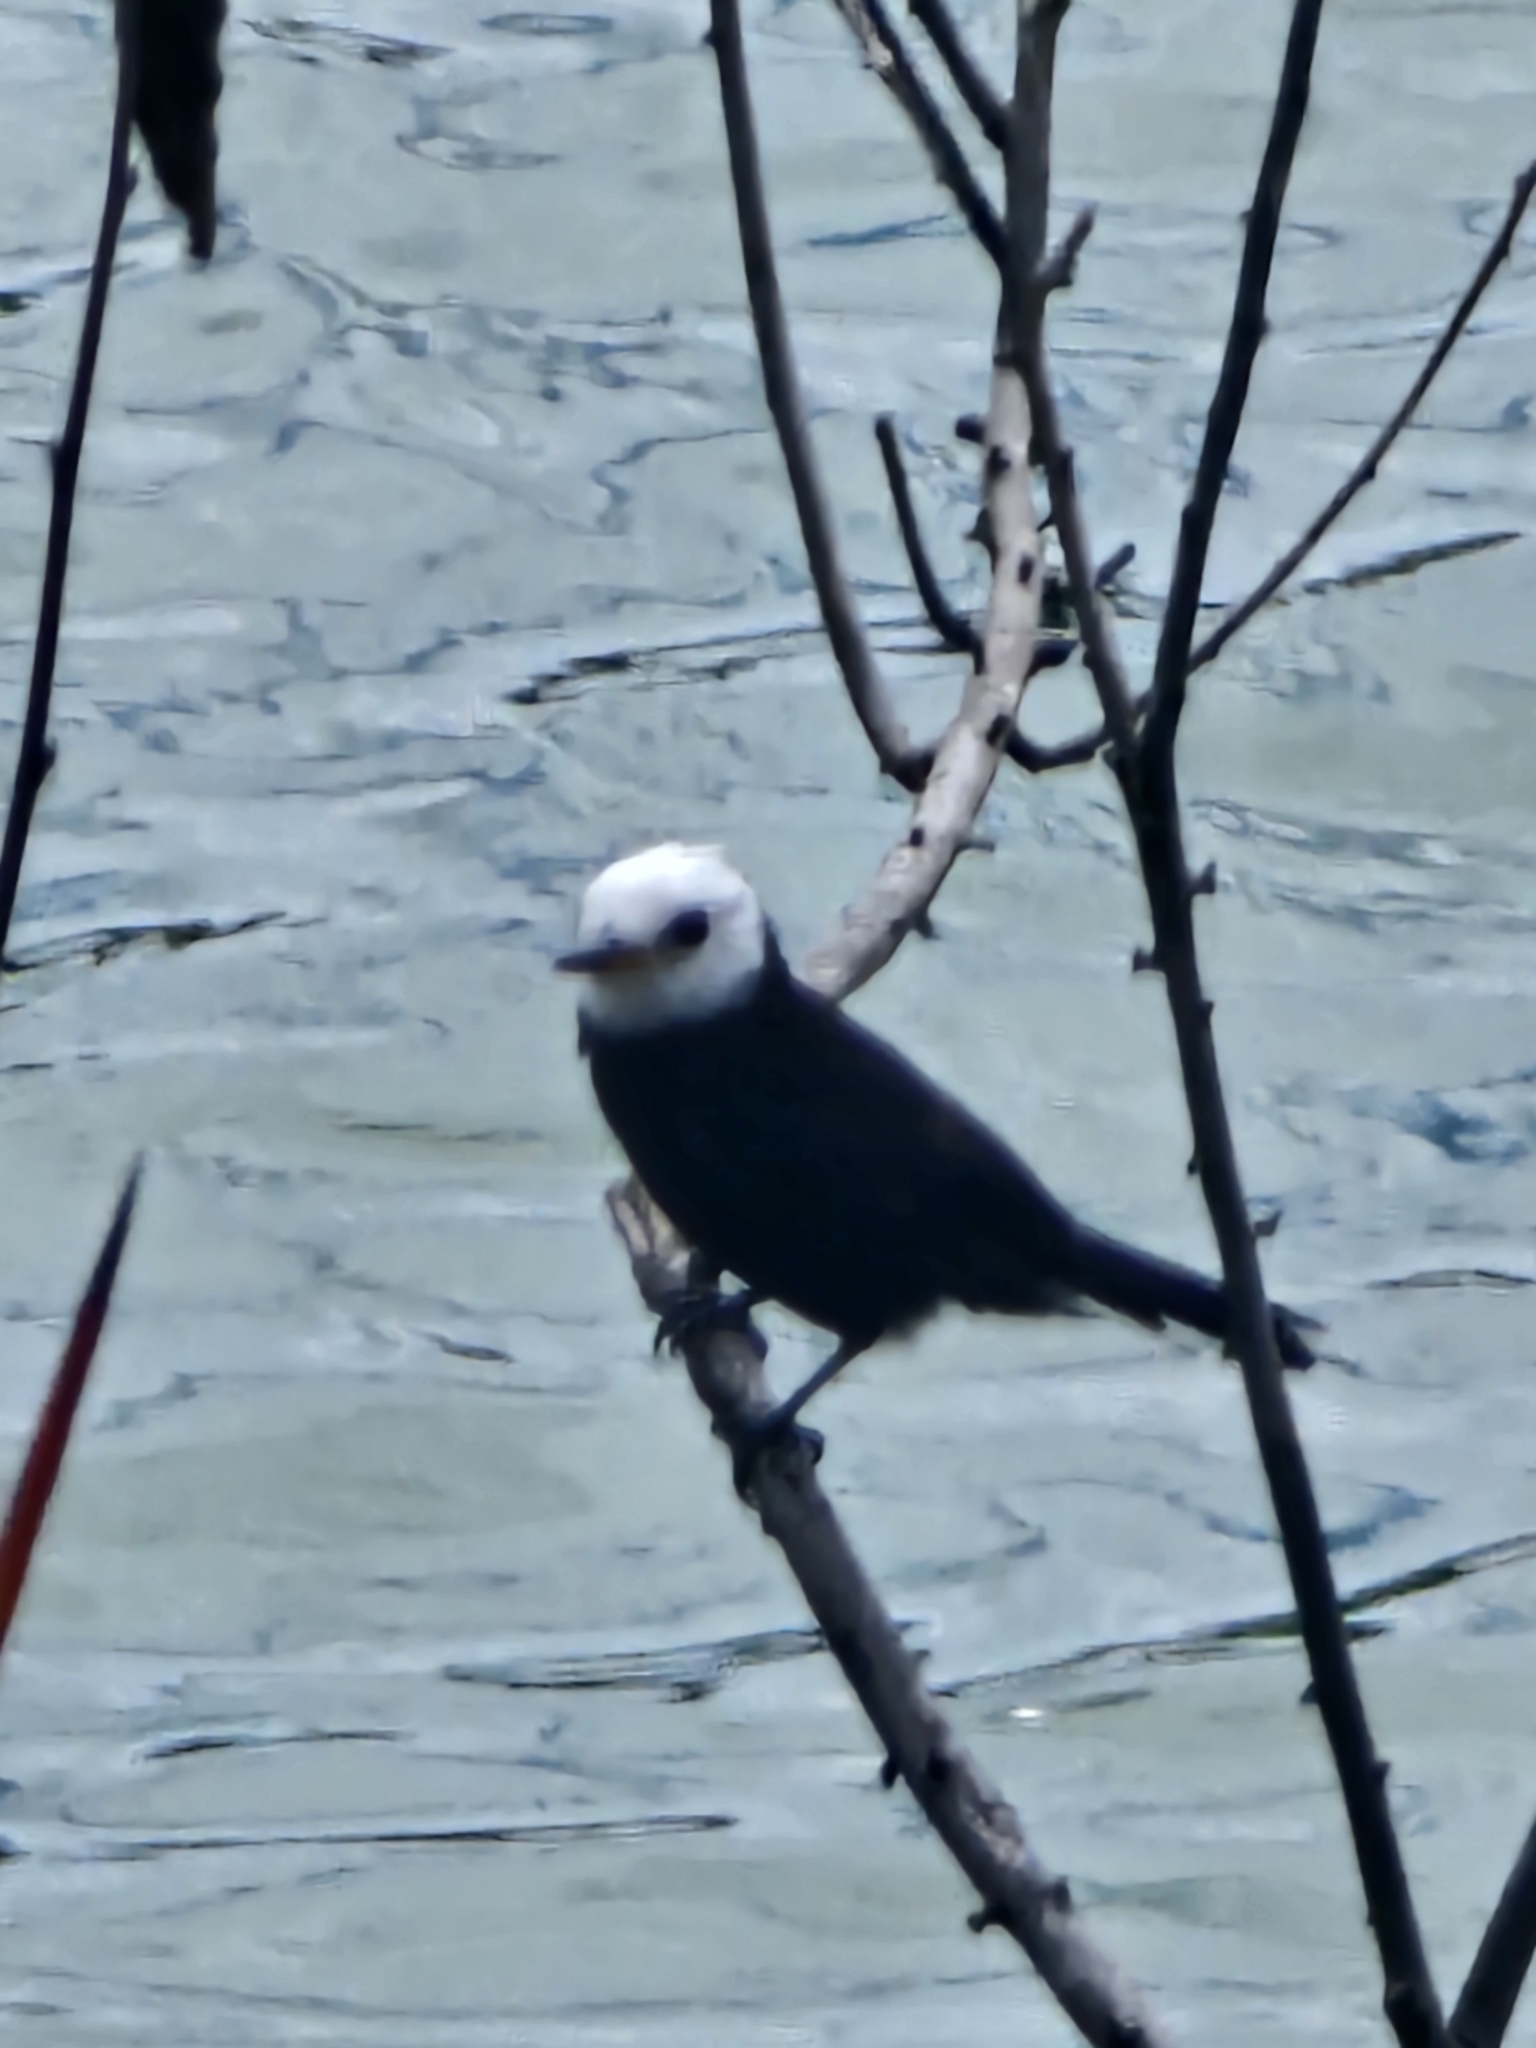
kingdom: Animalia
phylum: Chordata
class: Aves
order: Passeriformes
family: Tyrannidae
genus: Arundinicola
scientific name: Arundinicola leucocephala
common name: White-headed marsh tyrant
